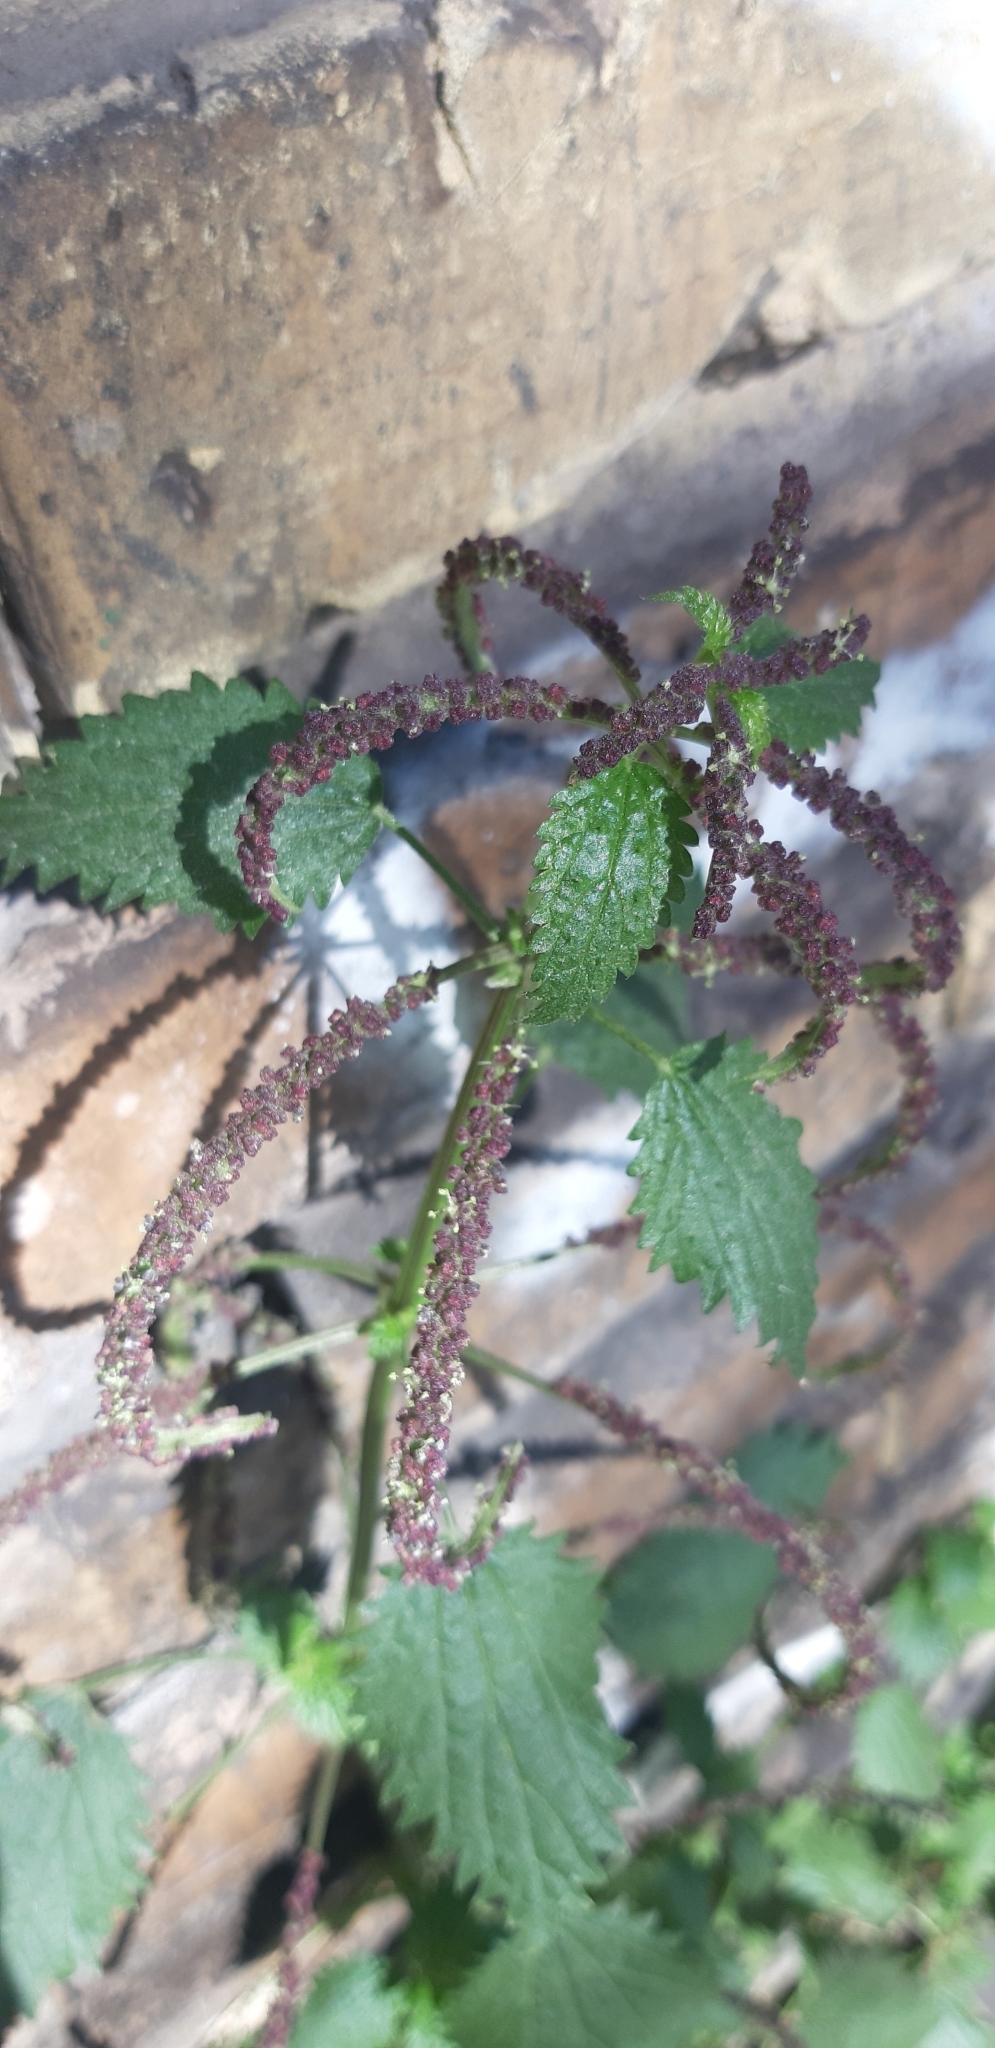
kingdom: Plantae
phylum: Tracheophyta
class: Magnoliopsida
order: Rosales
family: Urticaceae
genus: Urtica
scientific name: Urtica membranacea
